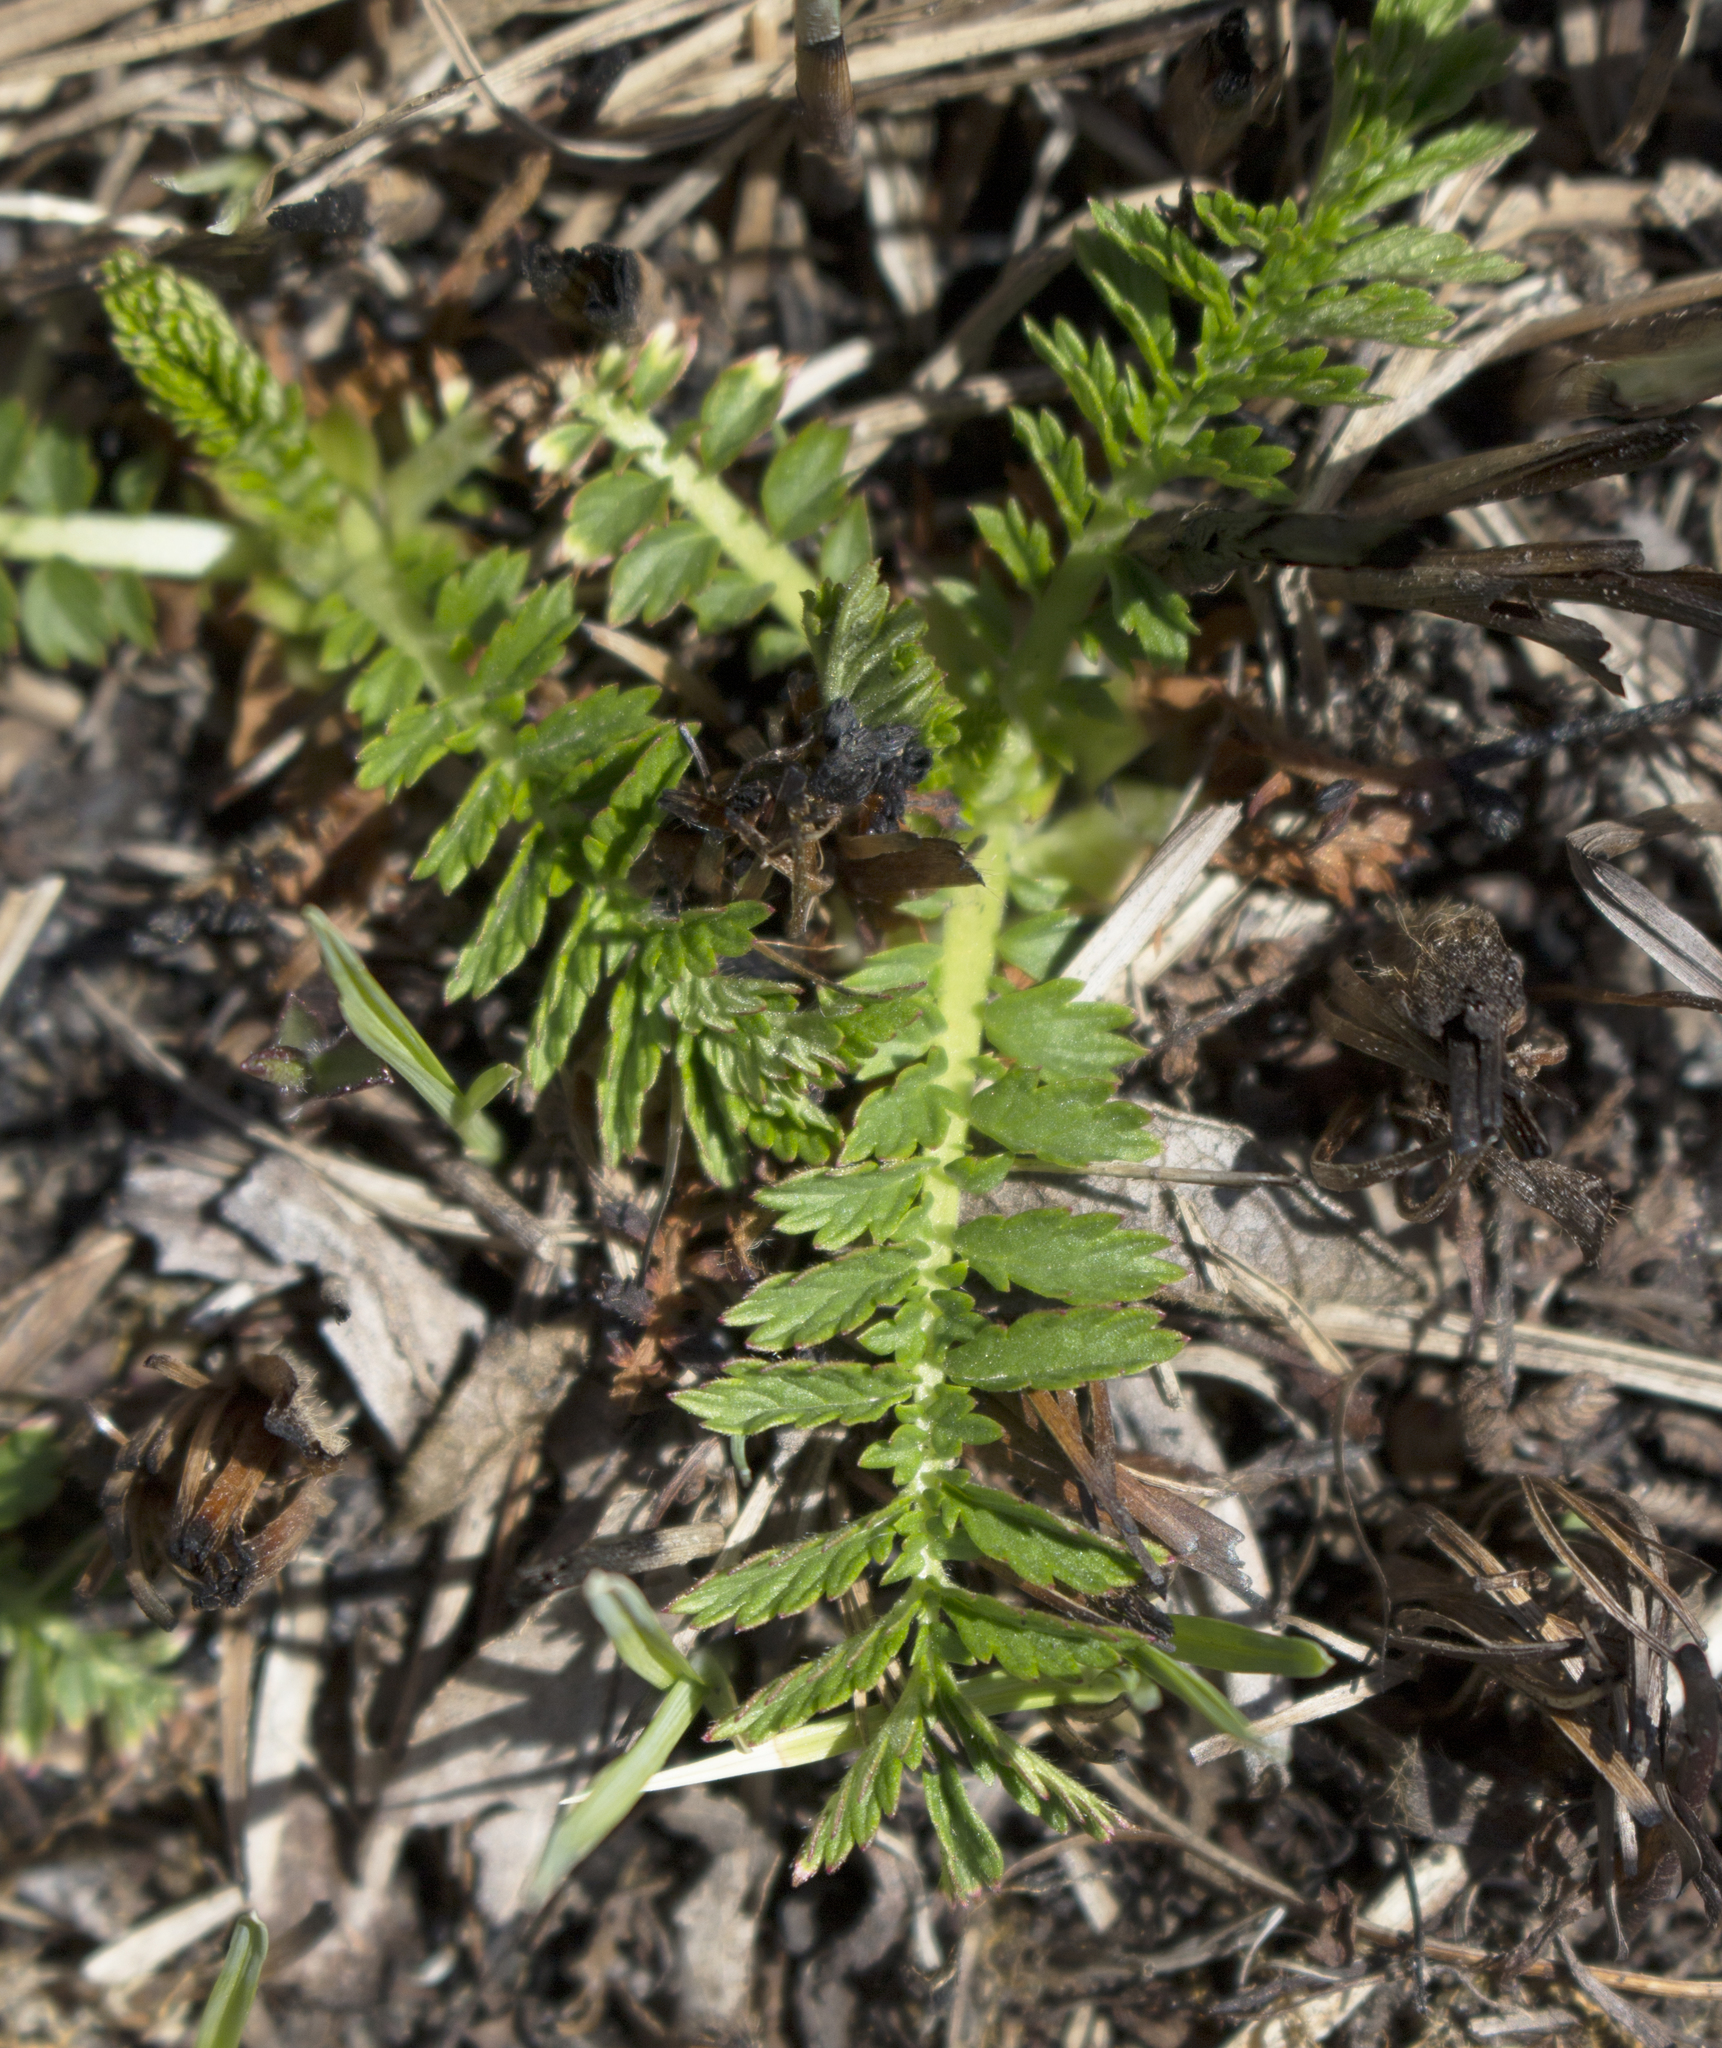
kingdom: Plantae
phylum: Tracheophyta
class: Magnoliopsida
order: Rosales
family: Rosaceae
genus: Agrimonia
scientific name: Agrimonia parviflora
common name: Harvest-lice
